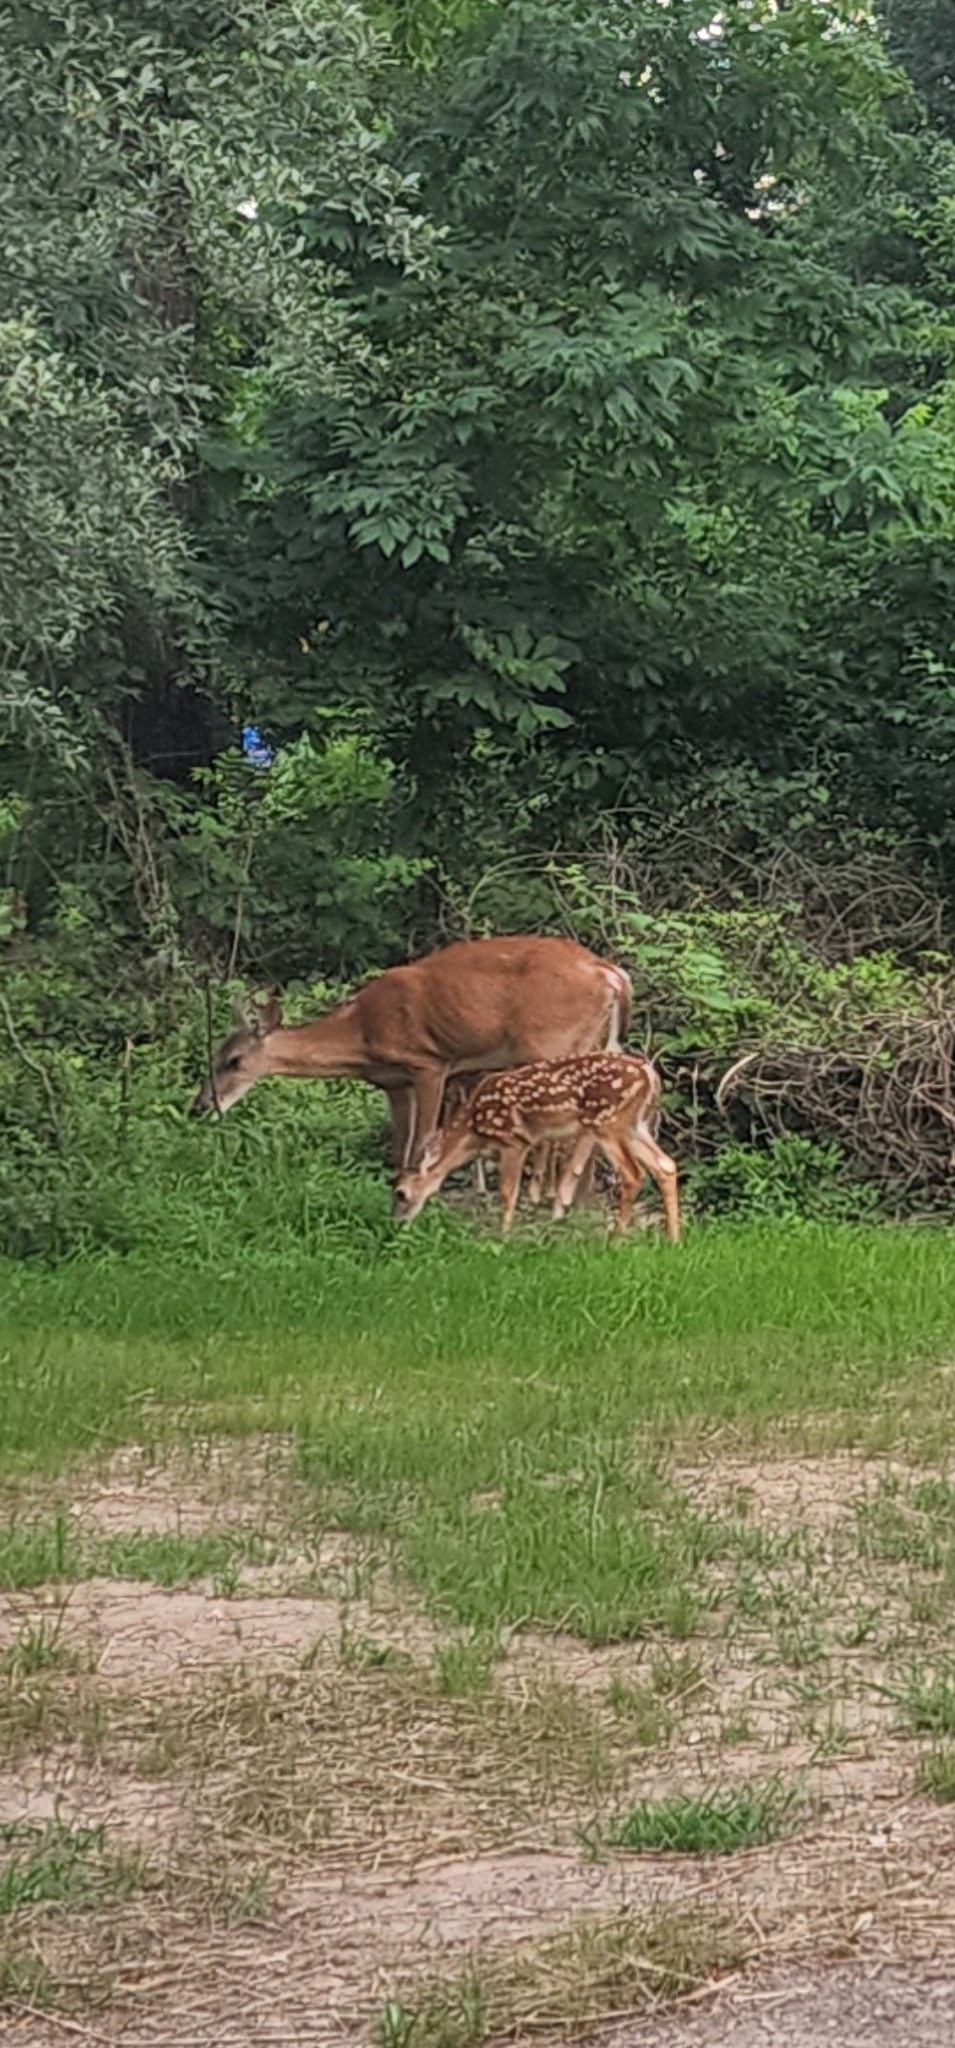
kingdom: Animalia
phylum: Chordata
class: Mammalia
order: Artiodactyla
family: Cervidae
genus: Odocoileus
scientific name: Odocoileus virginianus
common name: White-tailed deer
